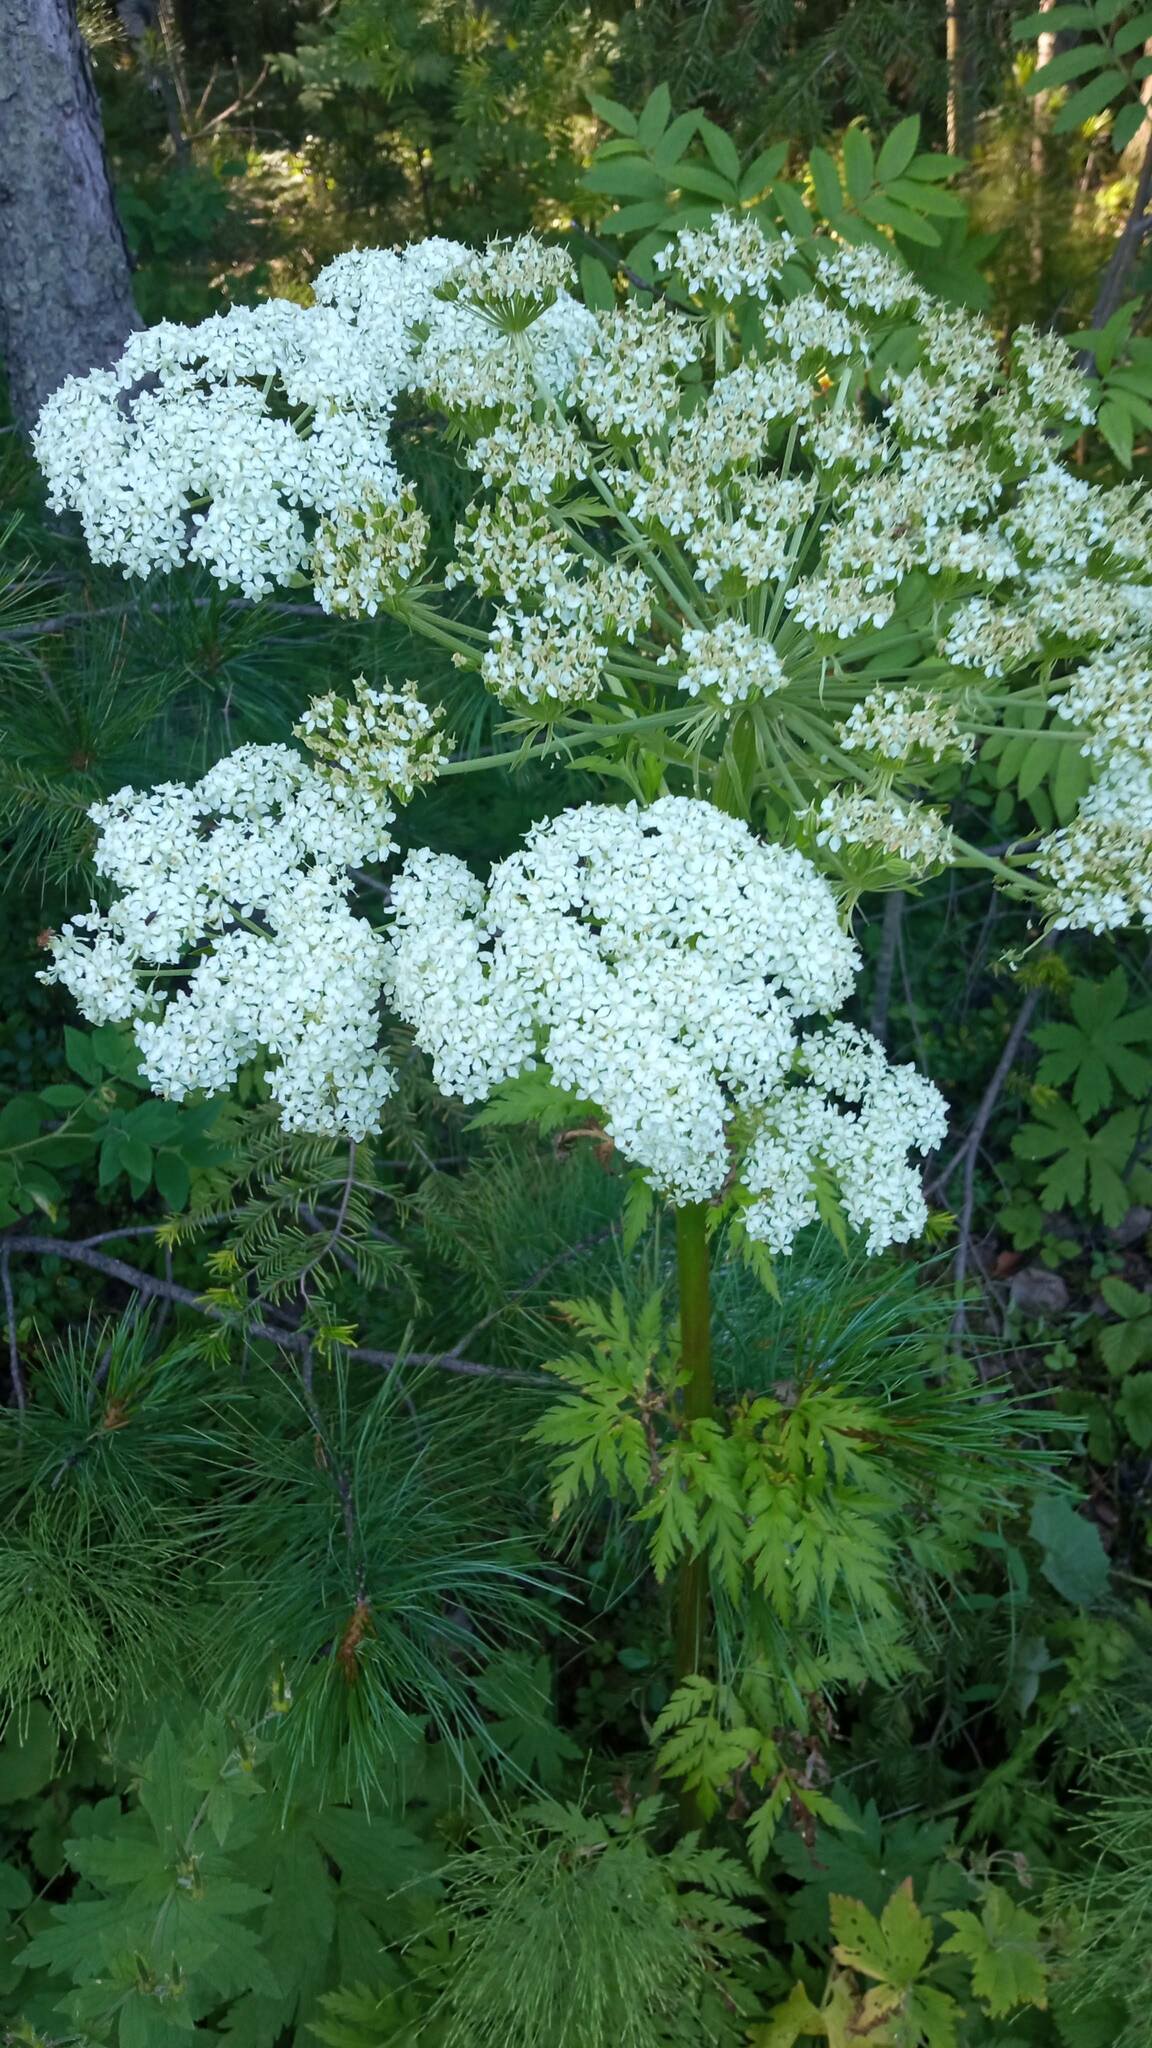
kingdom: Plantae
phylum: Tracheophyta
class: Magnoliopsida
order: Apiales
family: Apiaceae
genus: Pleurospermum
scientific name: Pleurospermum uralense
